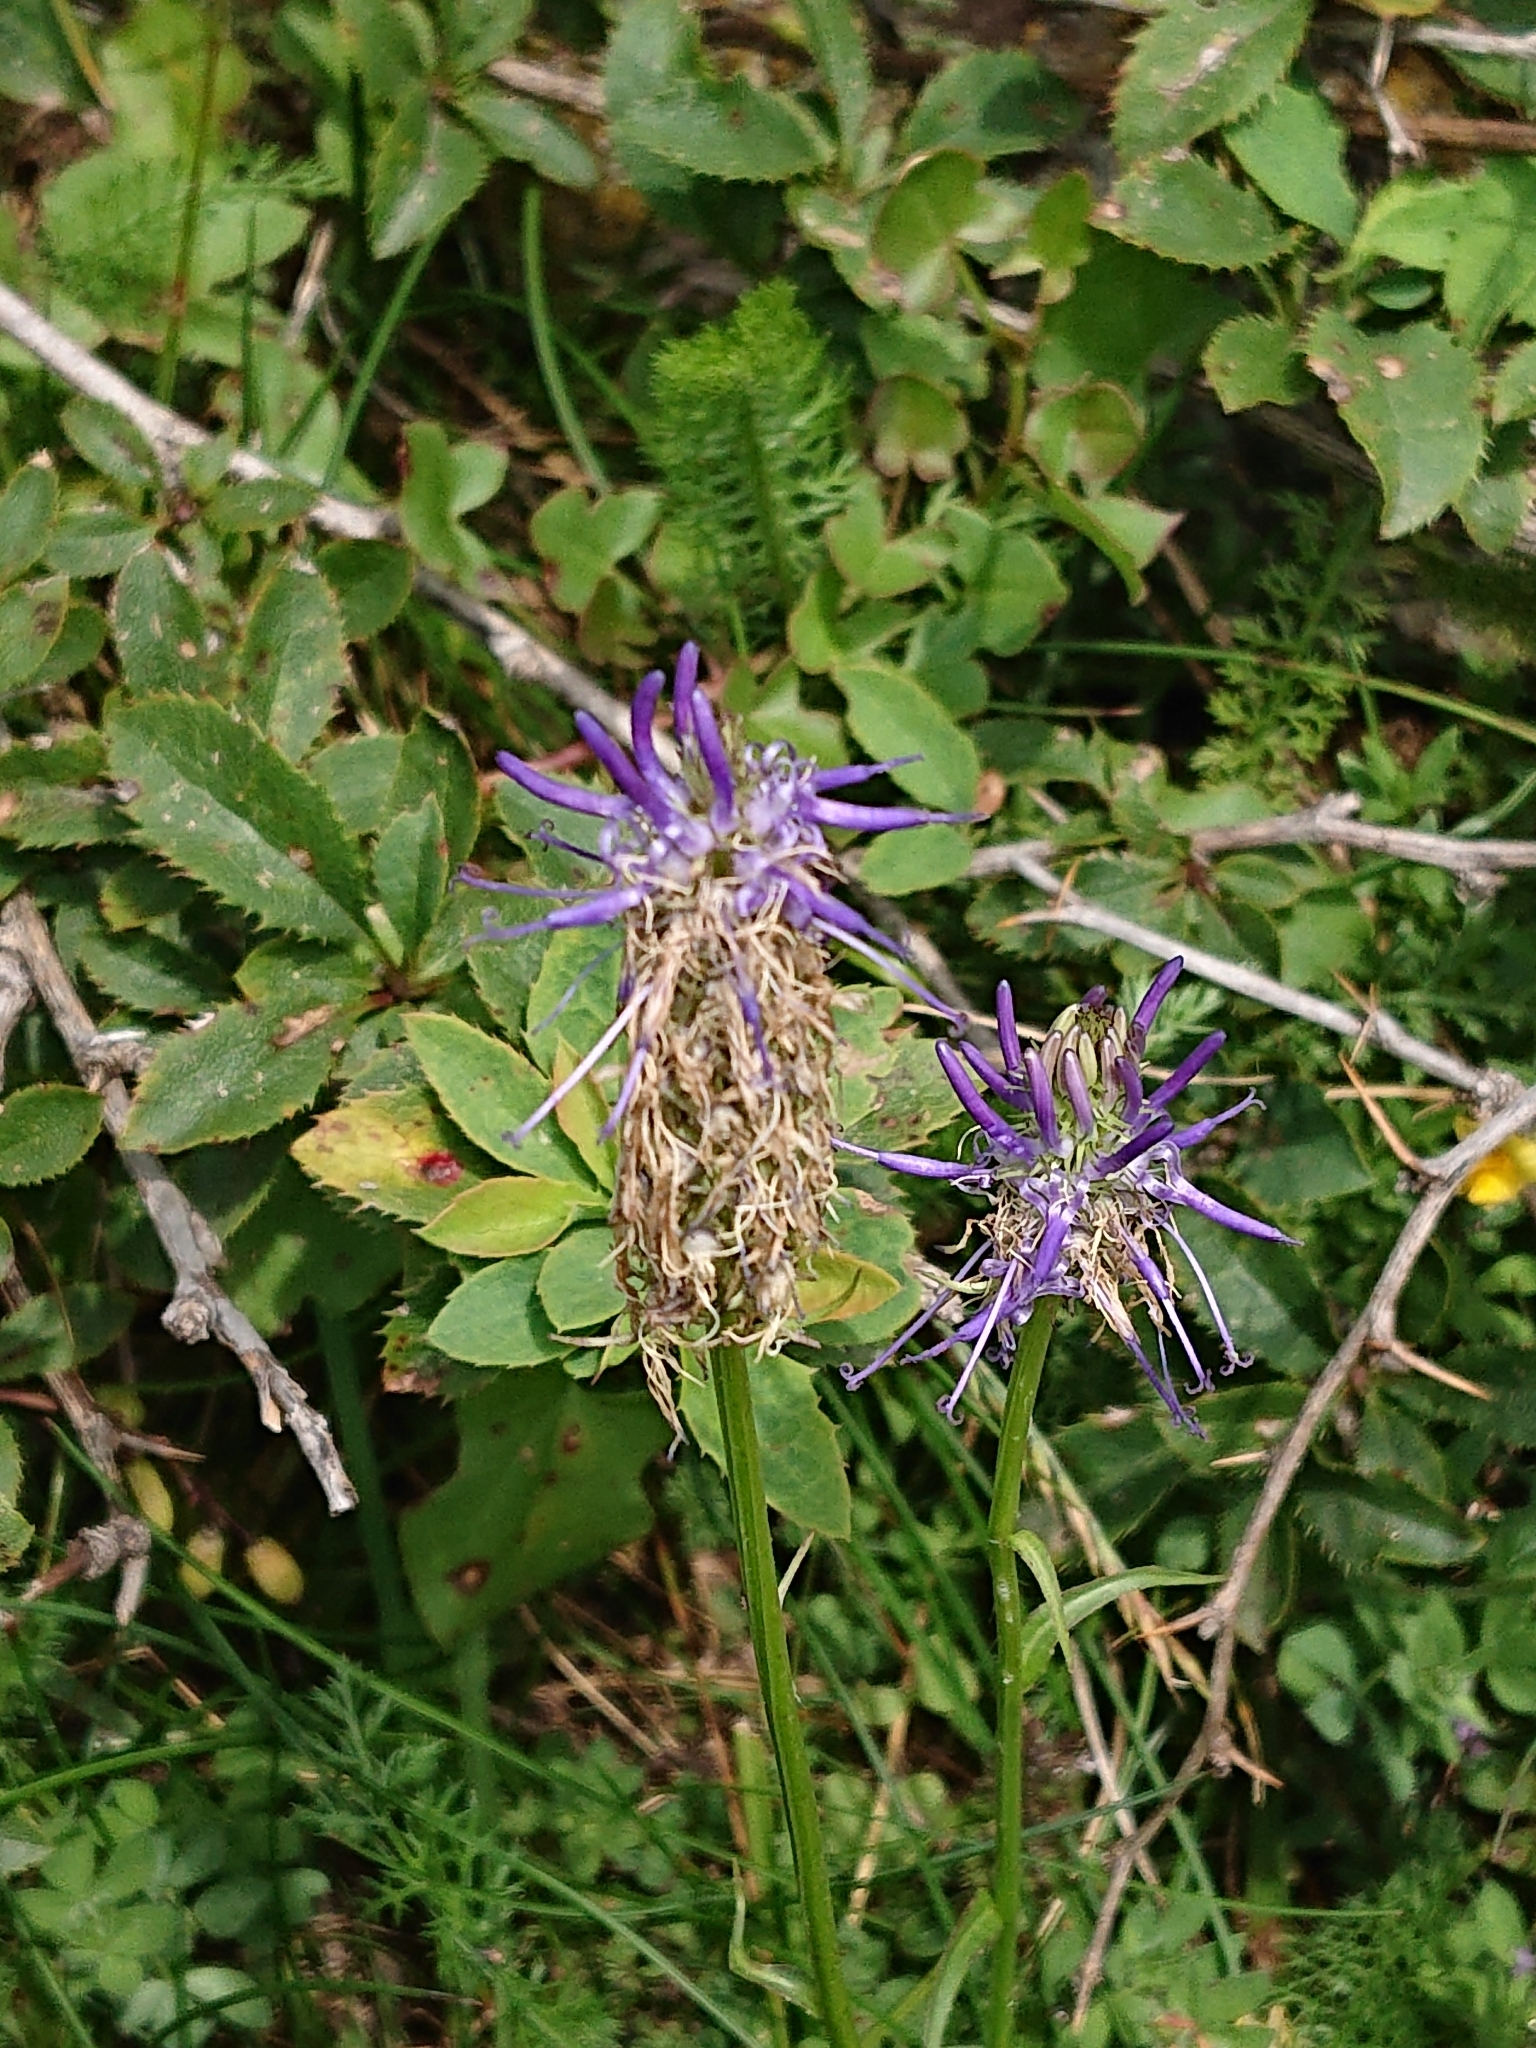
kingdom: Plantae
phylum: Tracheophyta
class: Magnoliopsida
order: Asterales
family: Campanulaceae
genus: Phyteuma
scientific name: Phyteuma betonicifolium
